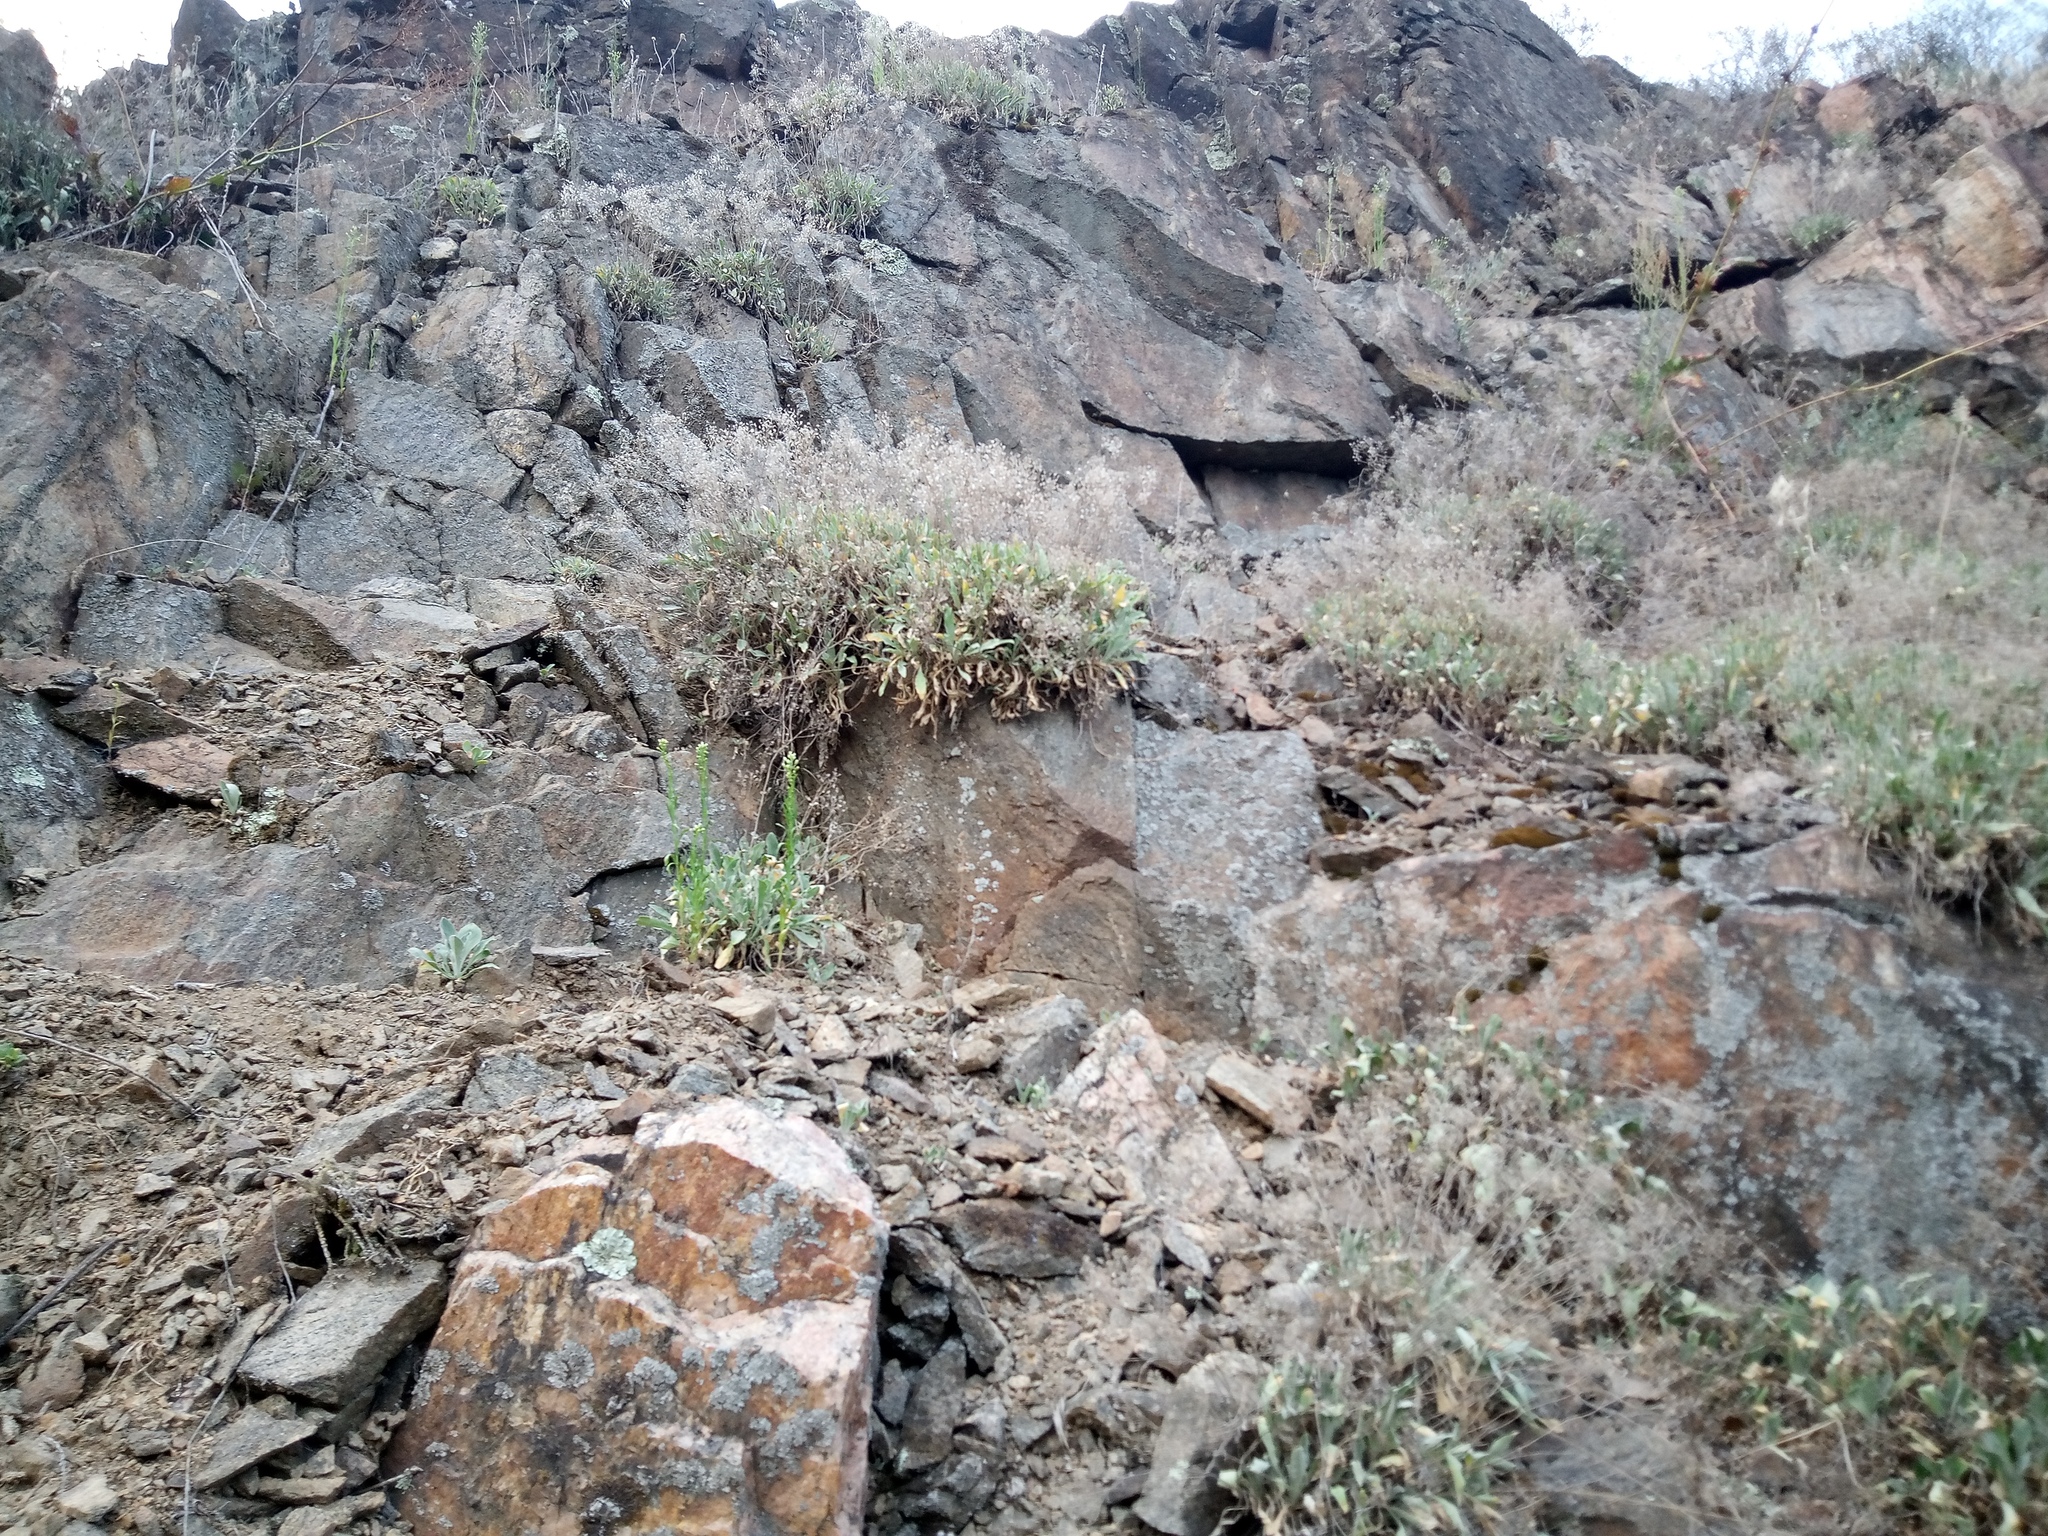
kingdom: Plantae
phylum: Tracheophyta
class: Magnoliopsida
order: Brassicales
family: Brassicaceae
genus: Aurinia
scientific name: Aurinia saxatilis
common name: Golden-tuft alyssum
